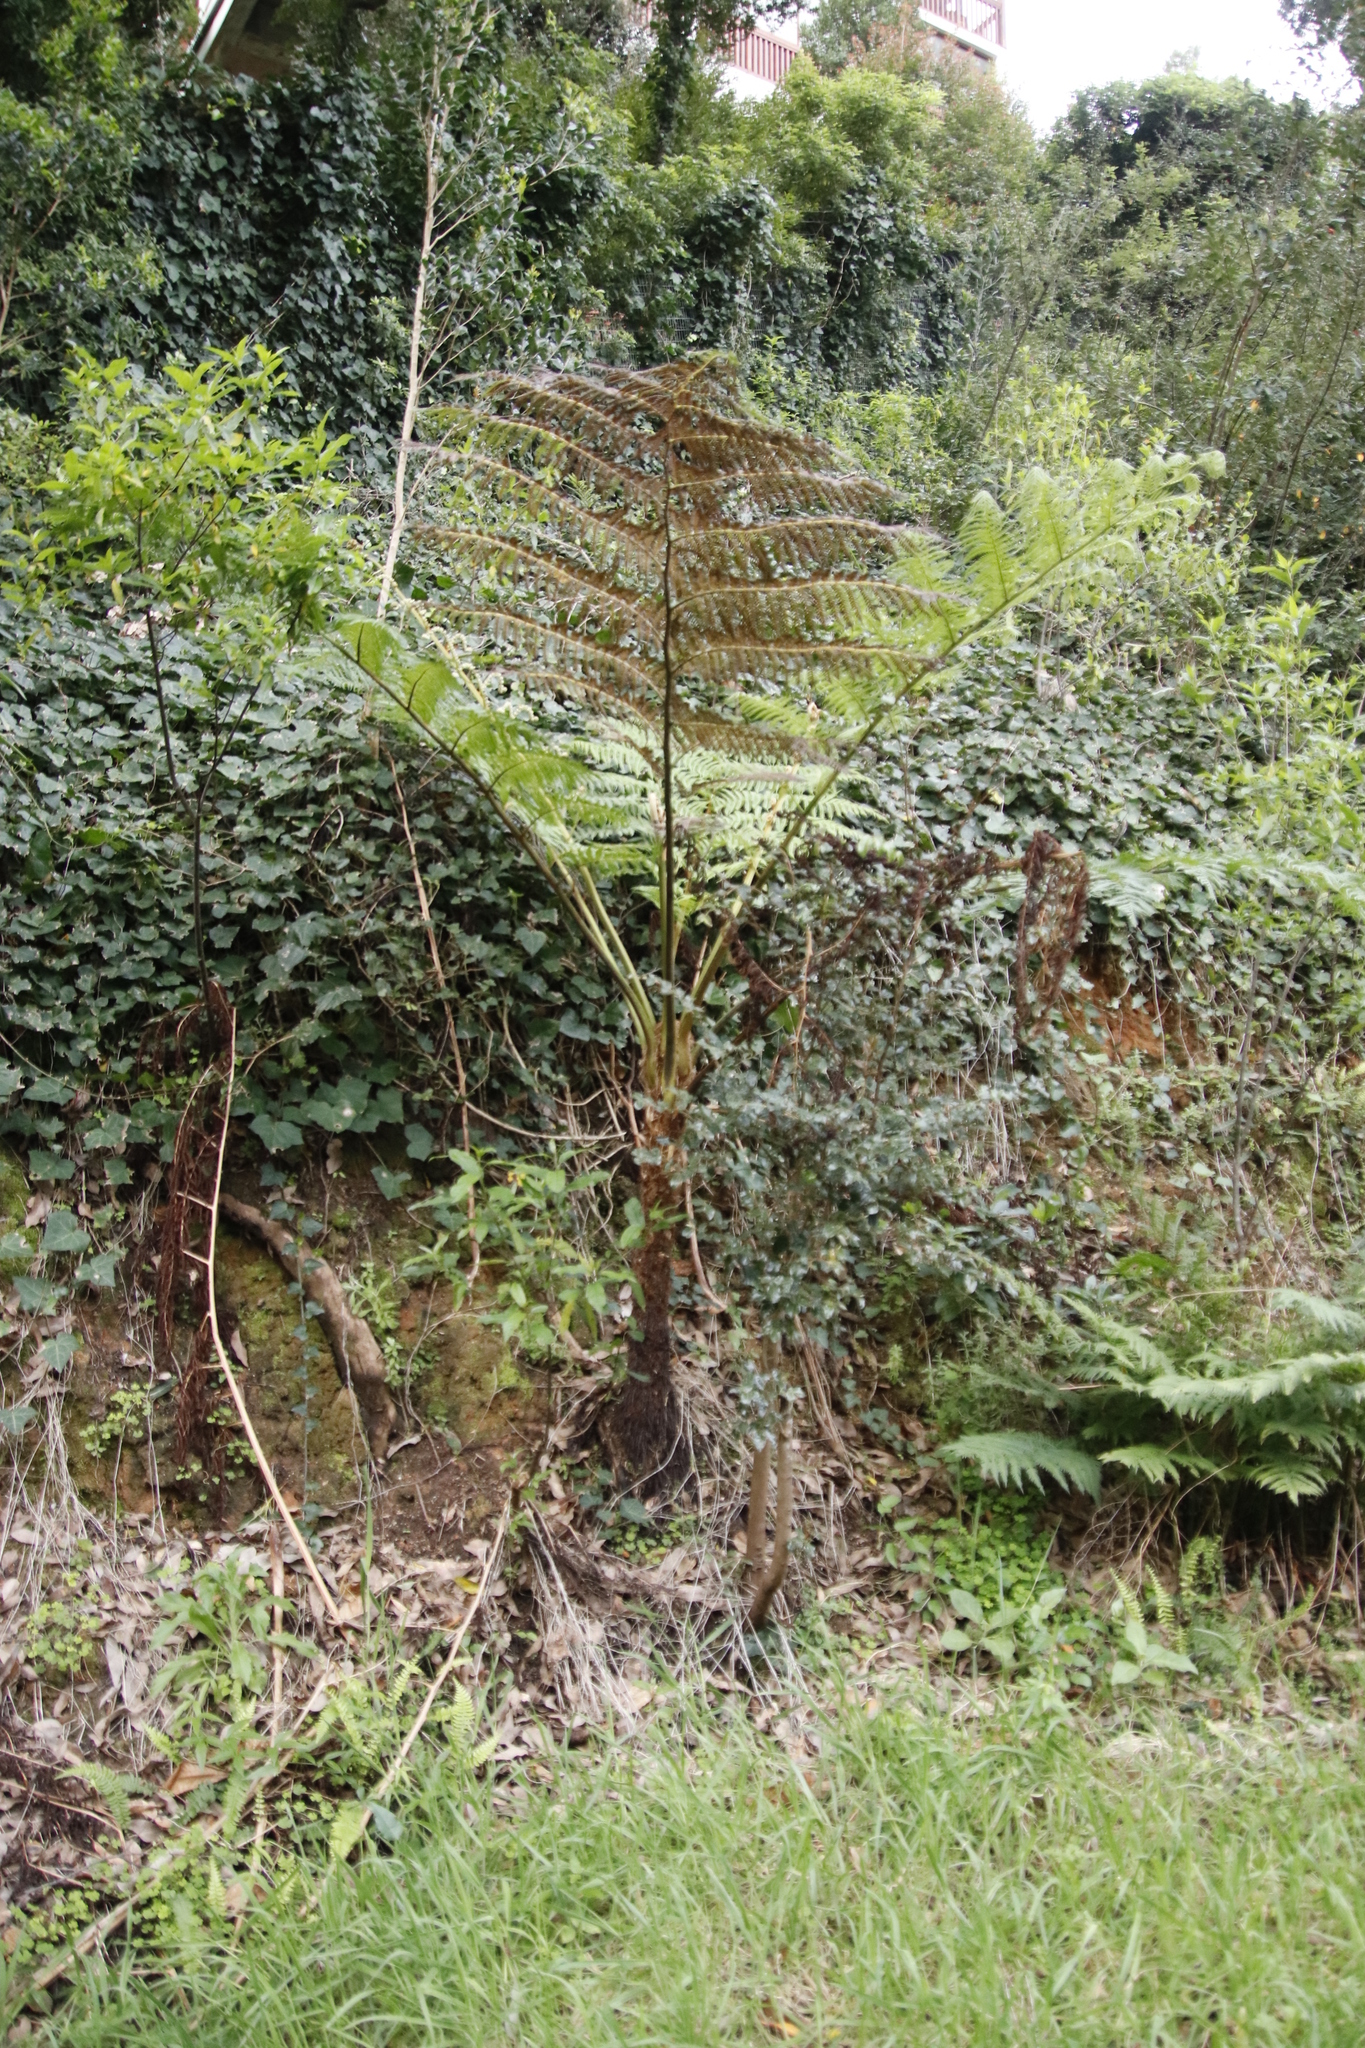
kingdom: Plantae
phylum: Tracheophyta
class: Polypodiopsida
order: Cyatheales
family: Cyatheaceae
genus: Sphaeropteris
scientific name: Sphaeropteris cooperi
